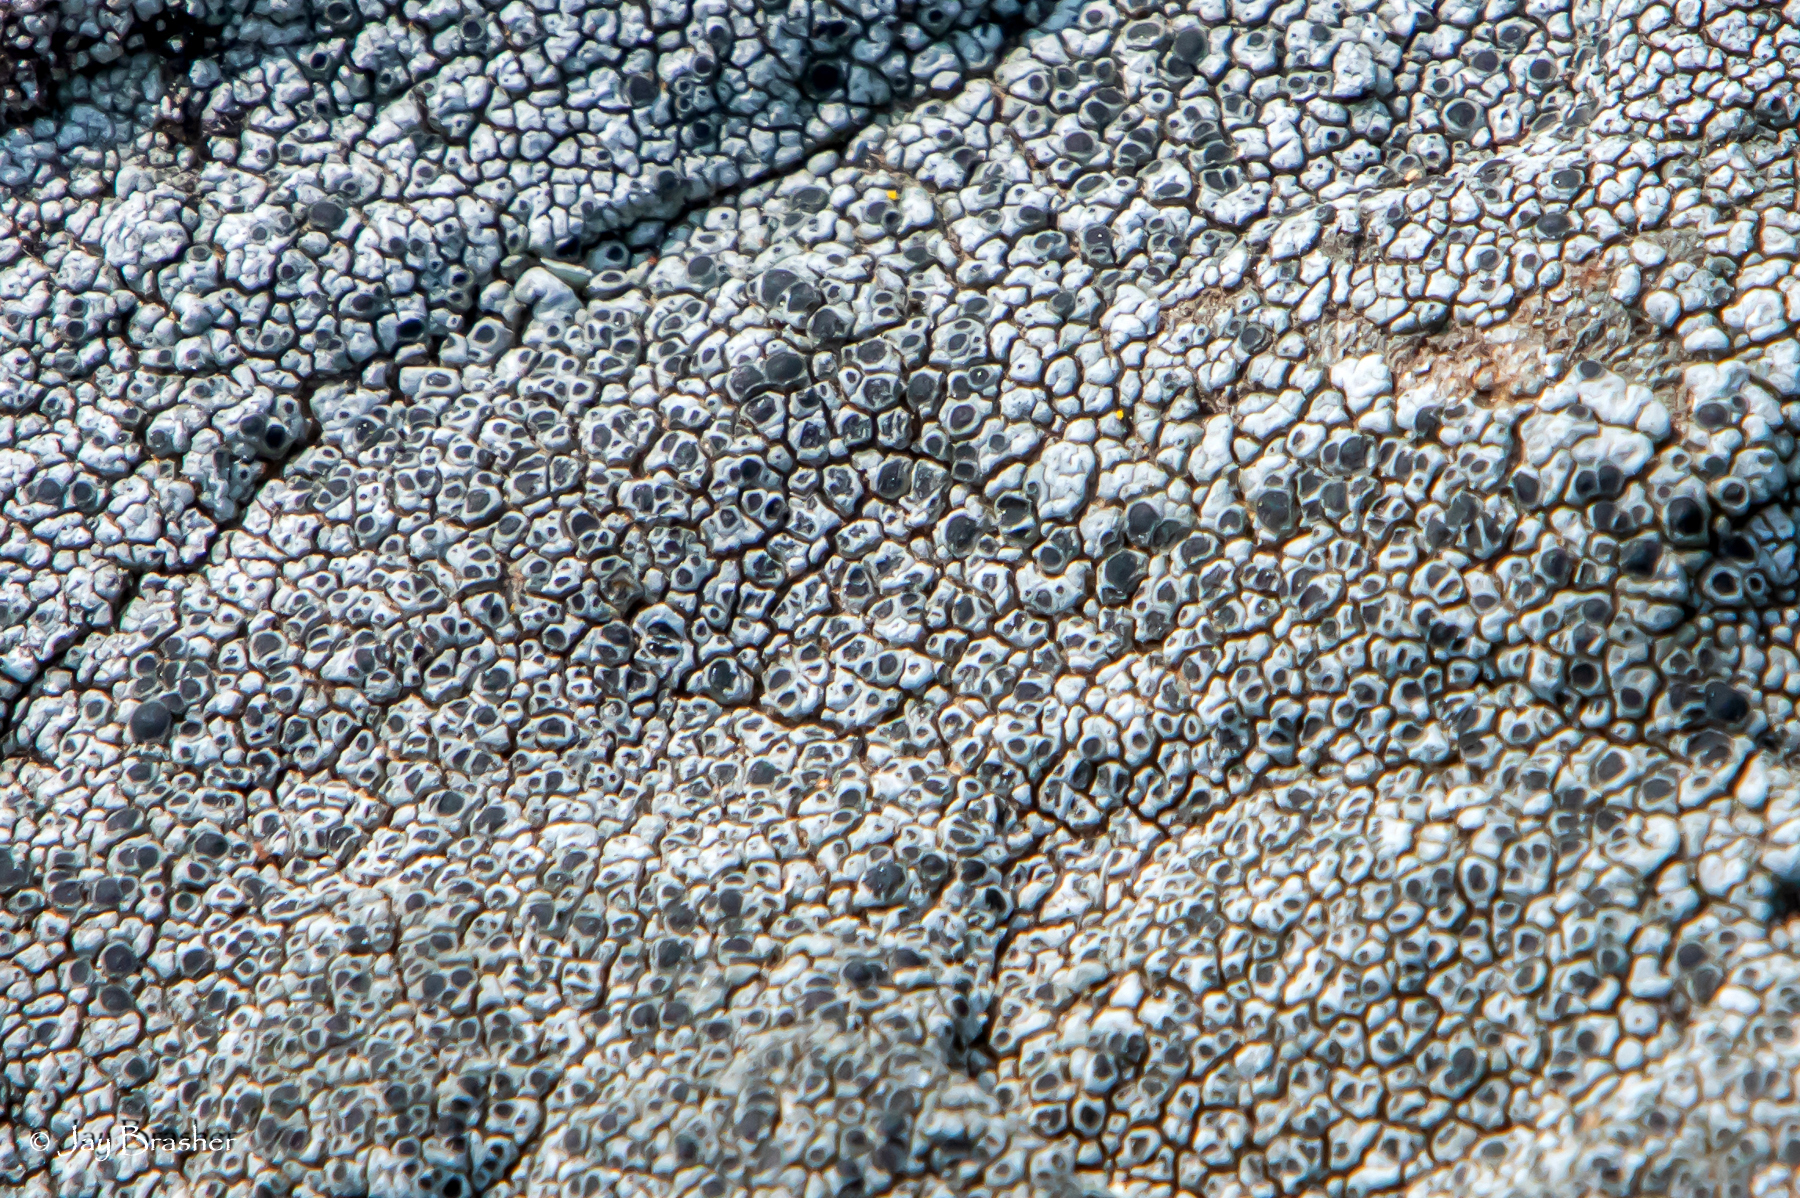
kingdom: Fungi
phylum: Ascomycota
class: Lecanoromycetes
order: Pertusariales
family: Megasporaceae
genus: Aspicilia
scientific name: Aspicilia cinerea
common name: Cinder lichen
